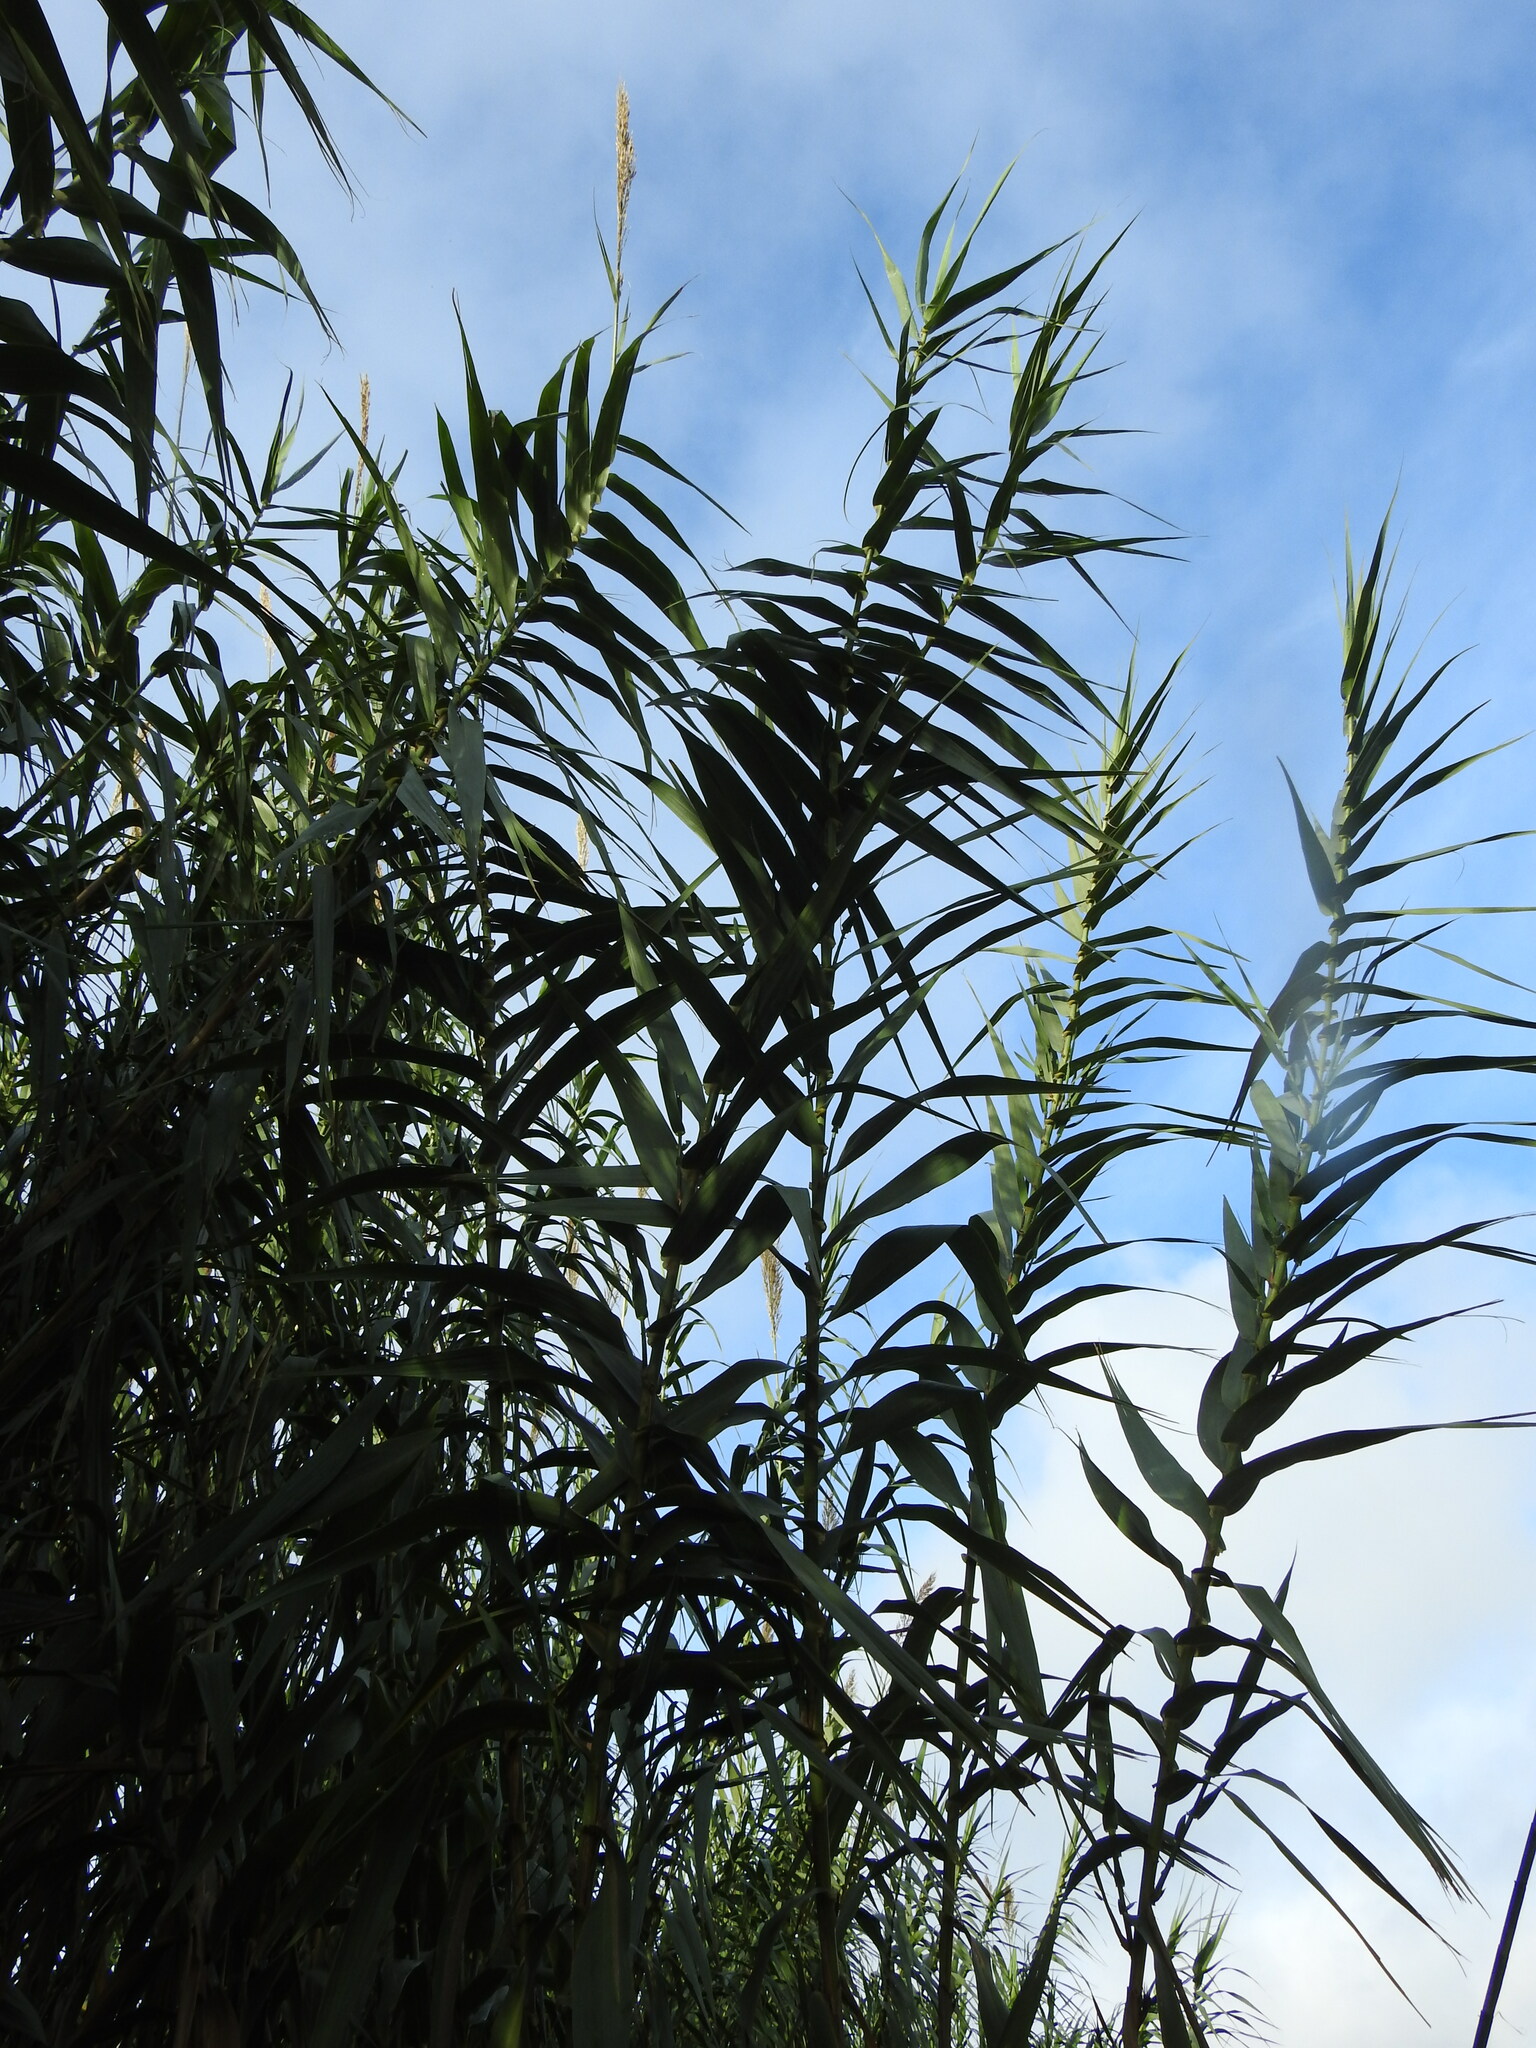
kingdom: Plantae
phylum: Tracheophyta
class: Liliopsida
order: Poales
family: Poaceae
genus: Arundo
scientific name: Arundo donax
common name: Giant reed
